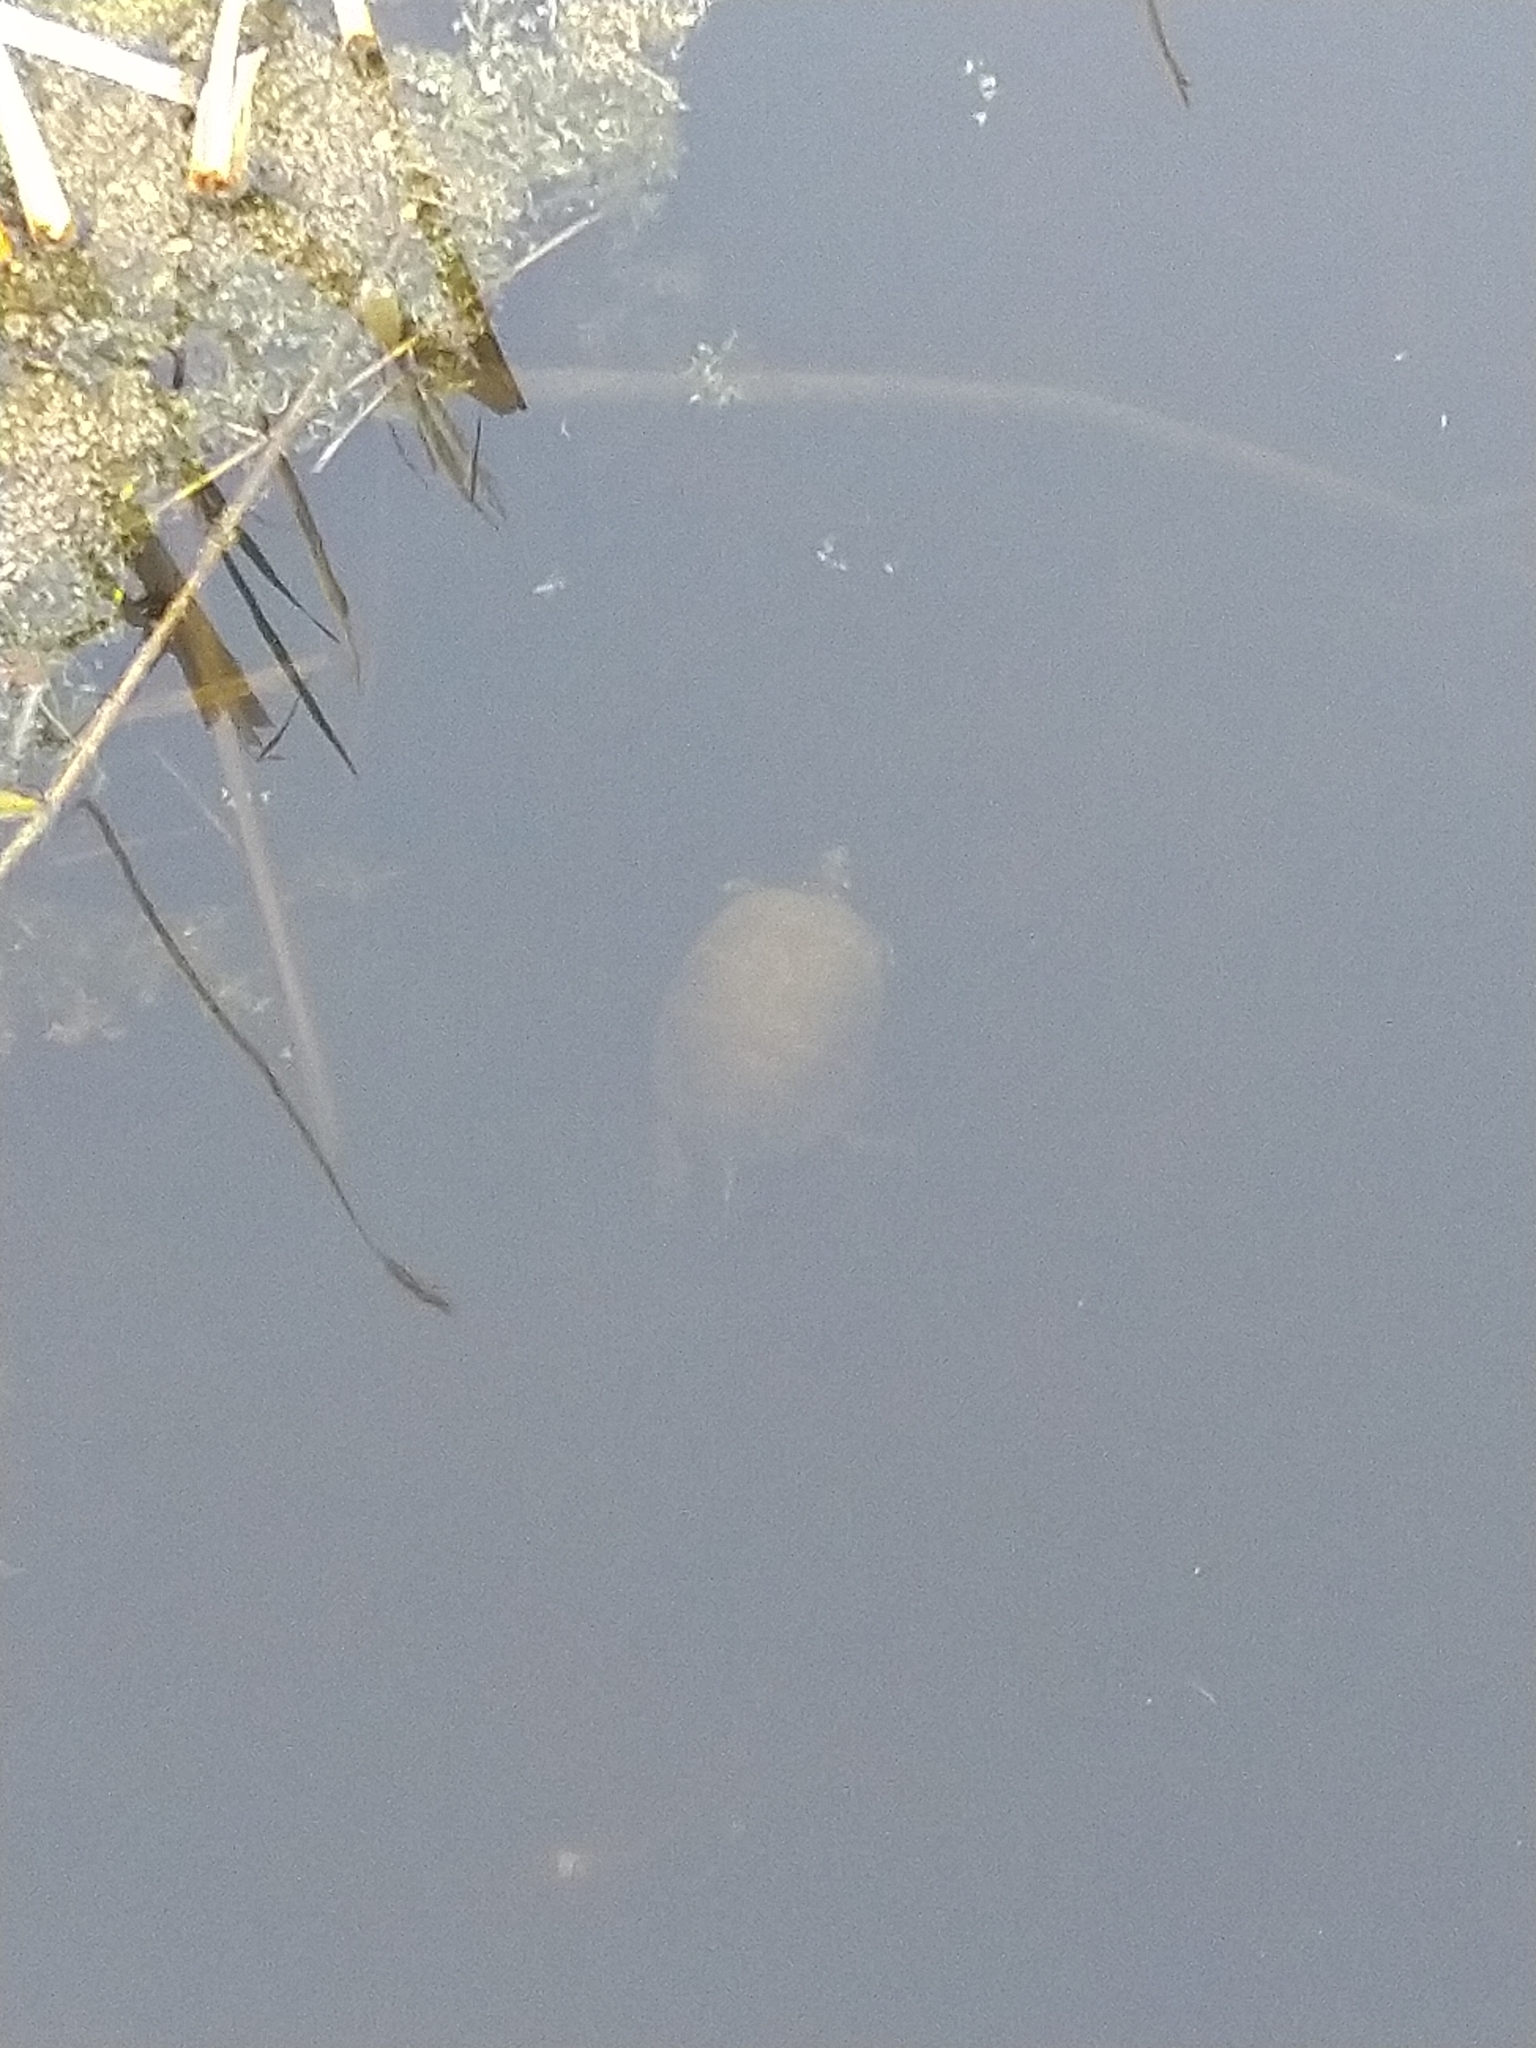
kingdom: Animalia
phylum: Chordata
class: Testudines
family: Emydidae
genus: Chrysemys
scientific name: Chrysemys picta
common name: Painted turtle
